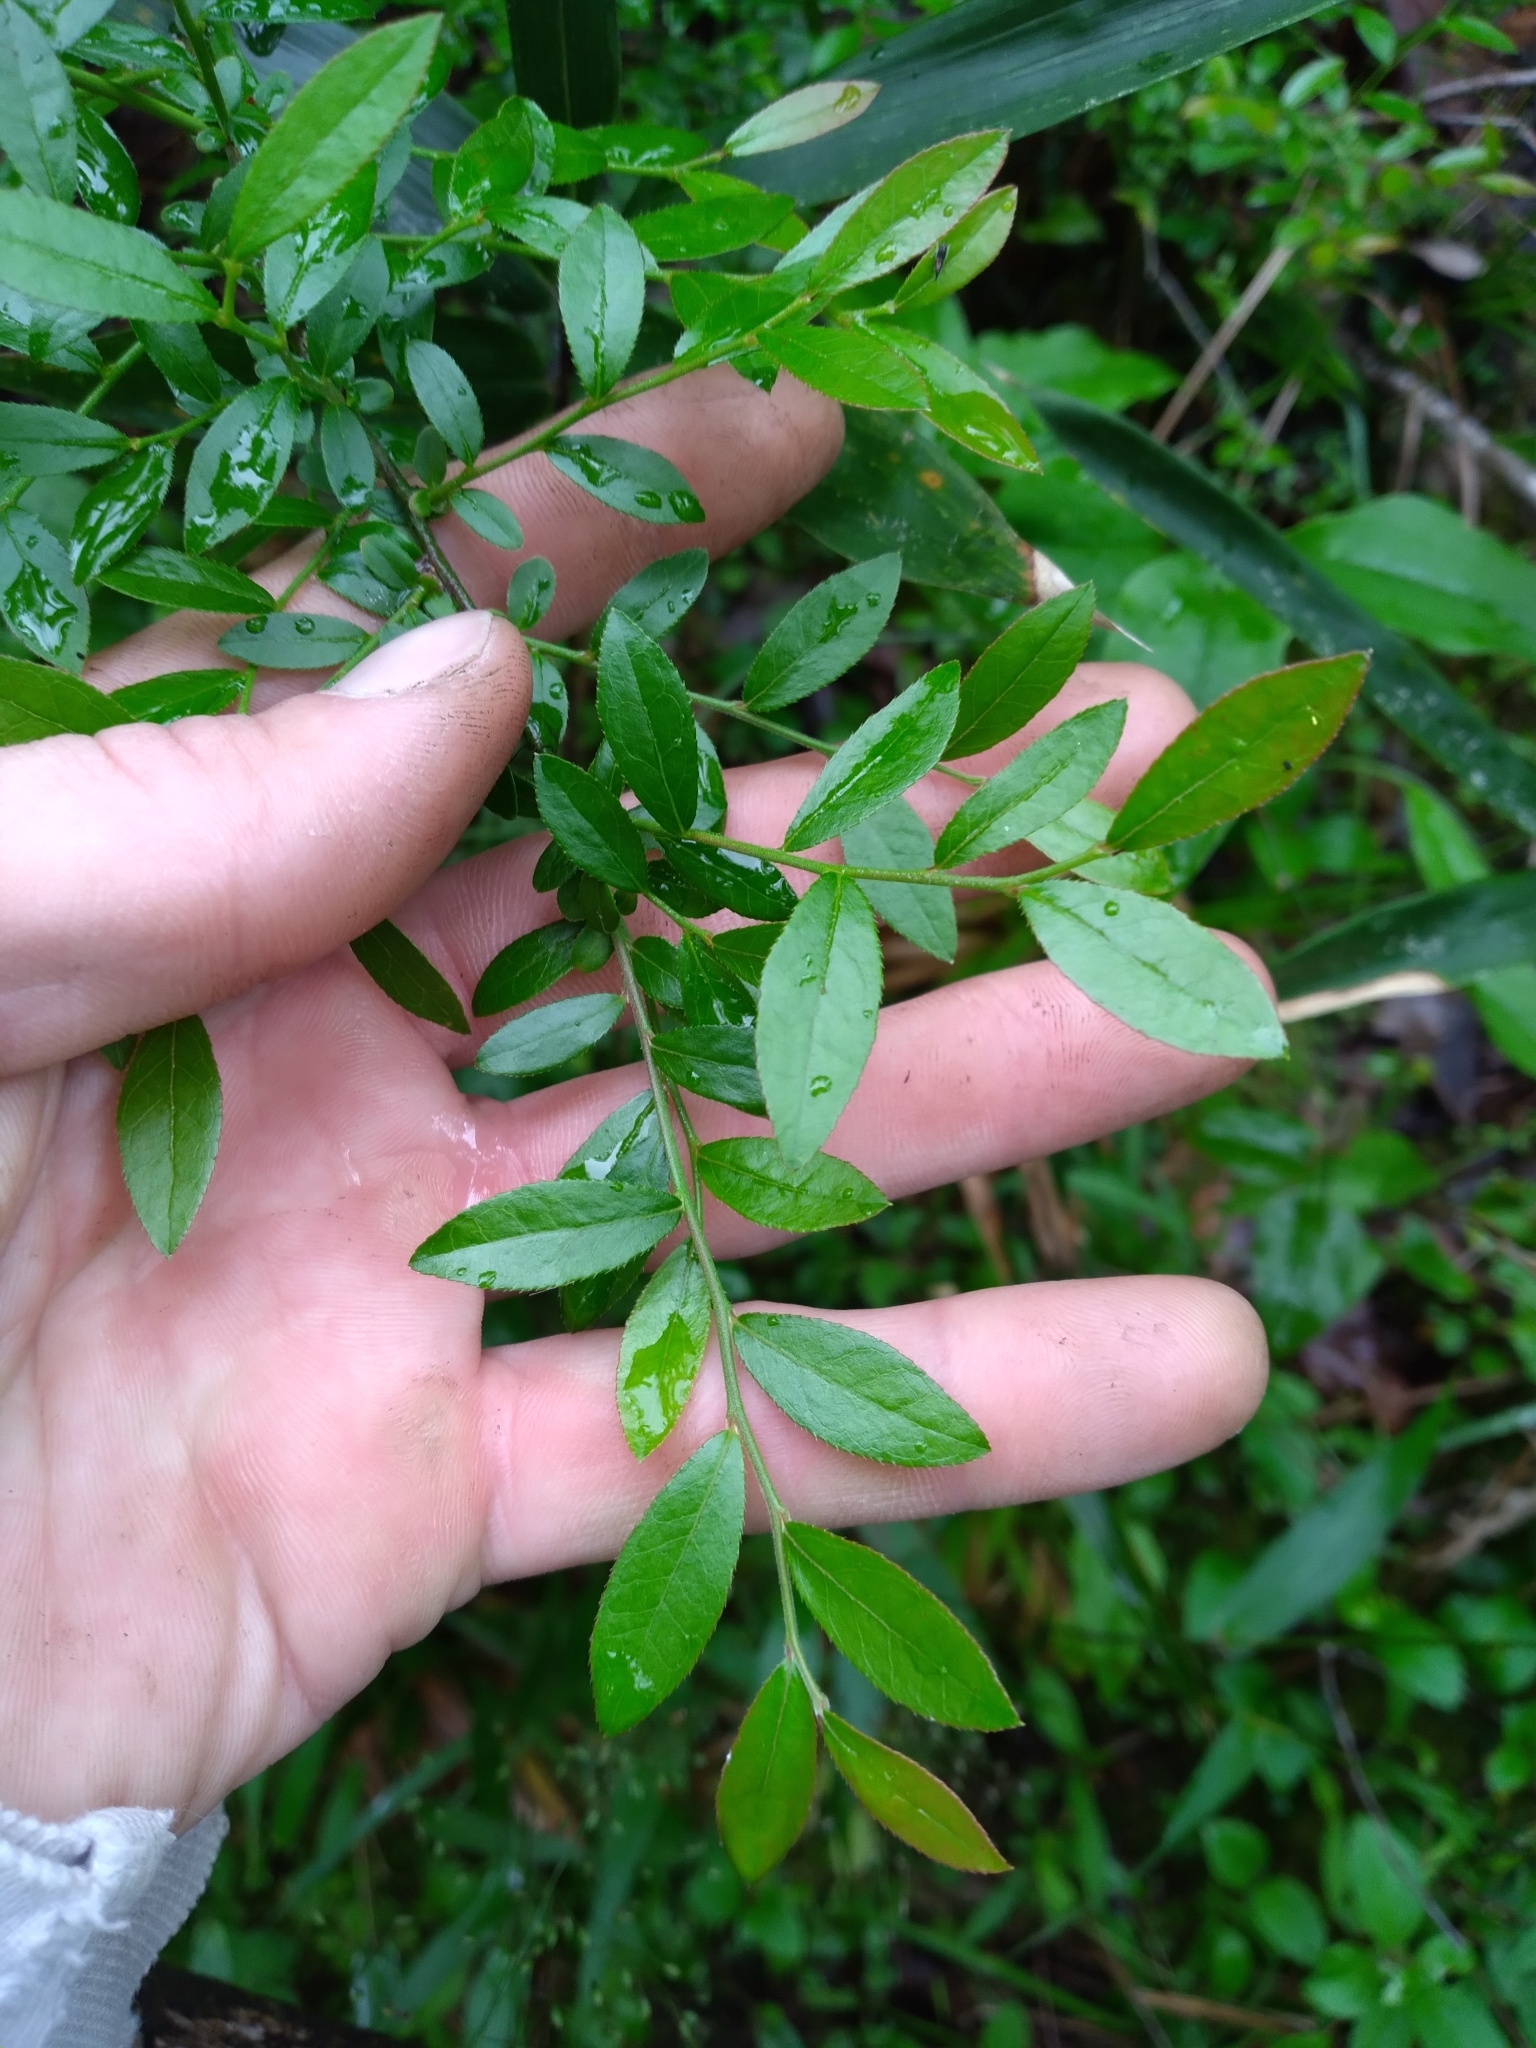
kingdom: Plantae
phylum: Tracheophyta
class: Magnoliopsida
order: Ericales
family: Ericaceae
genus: Vaccinium
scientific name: Vaccinium corymbosum
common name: Blueberry
